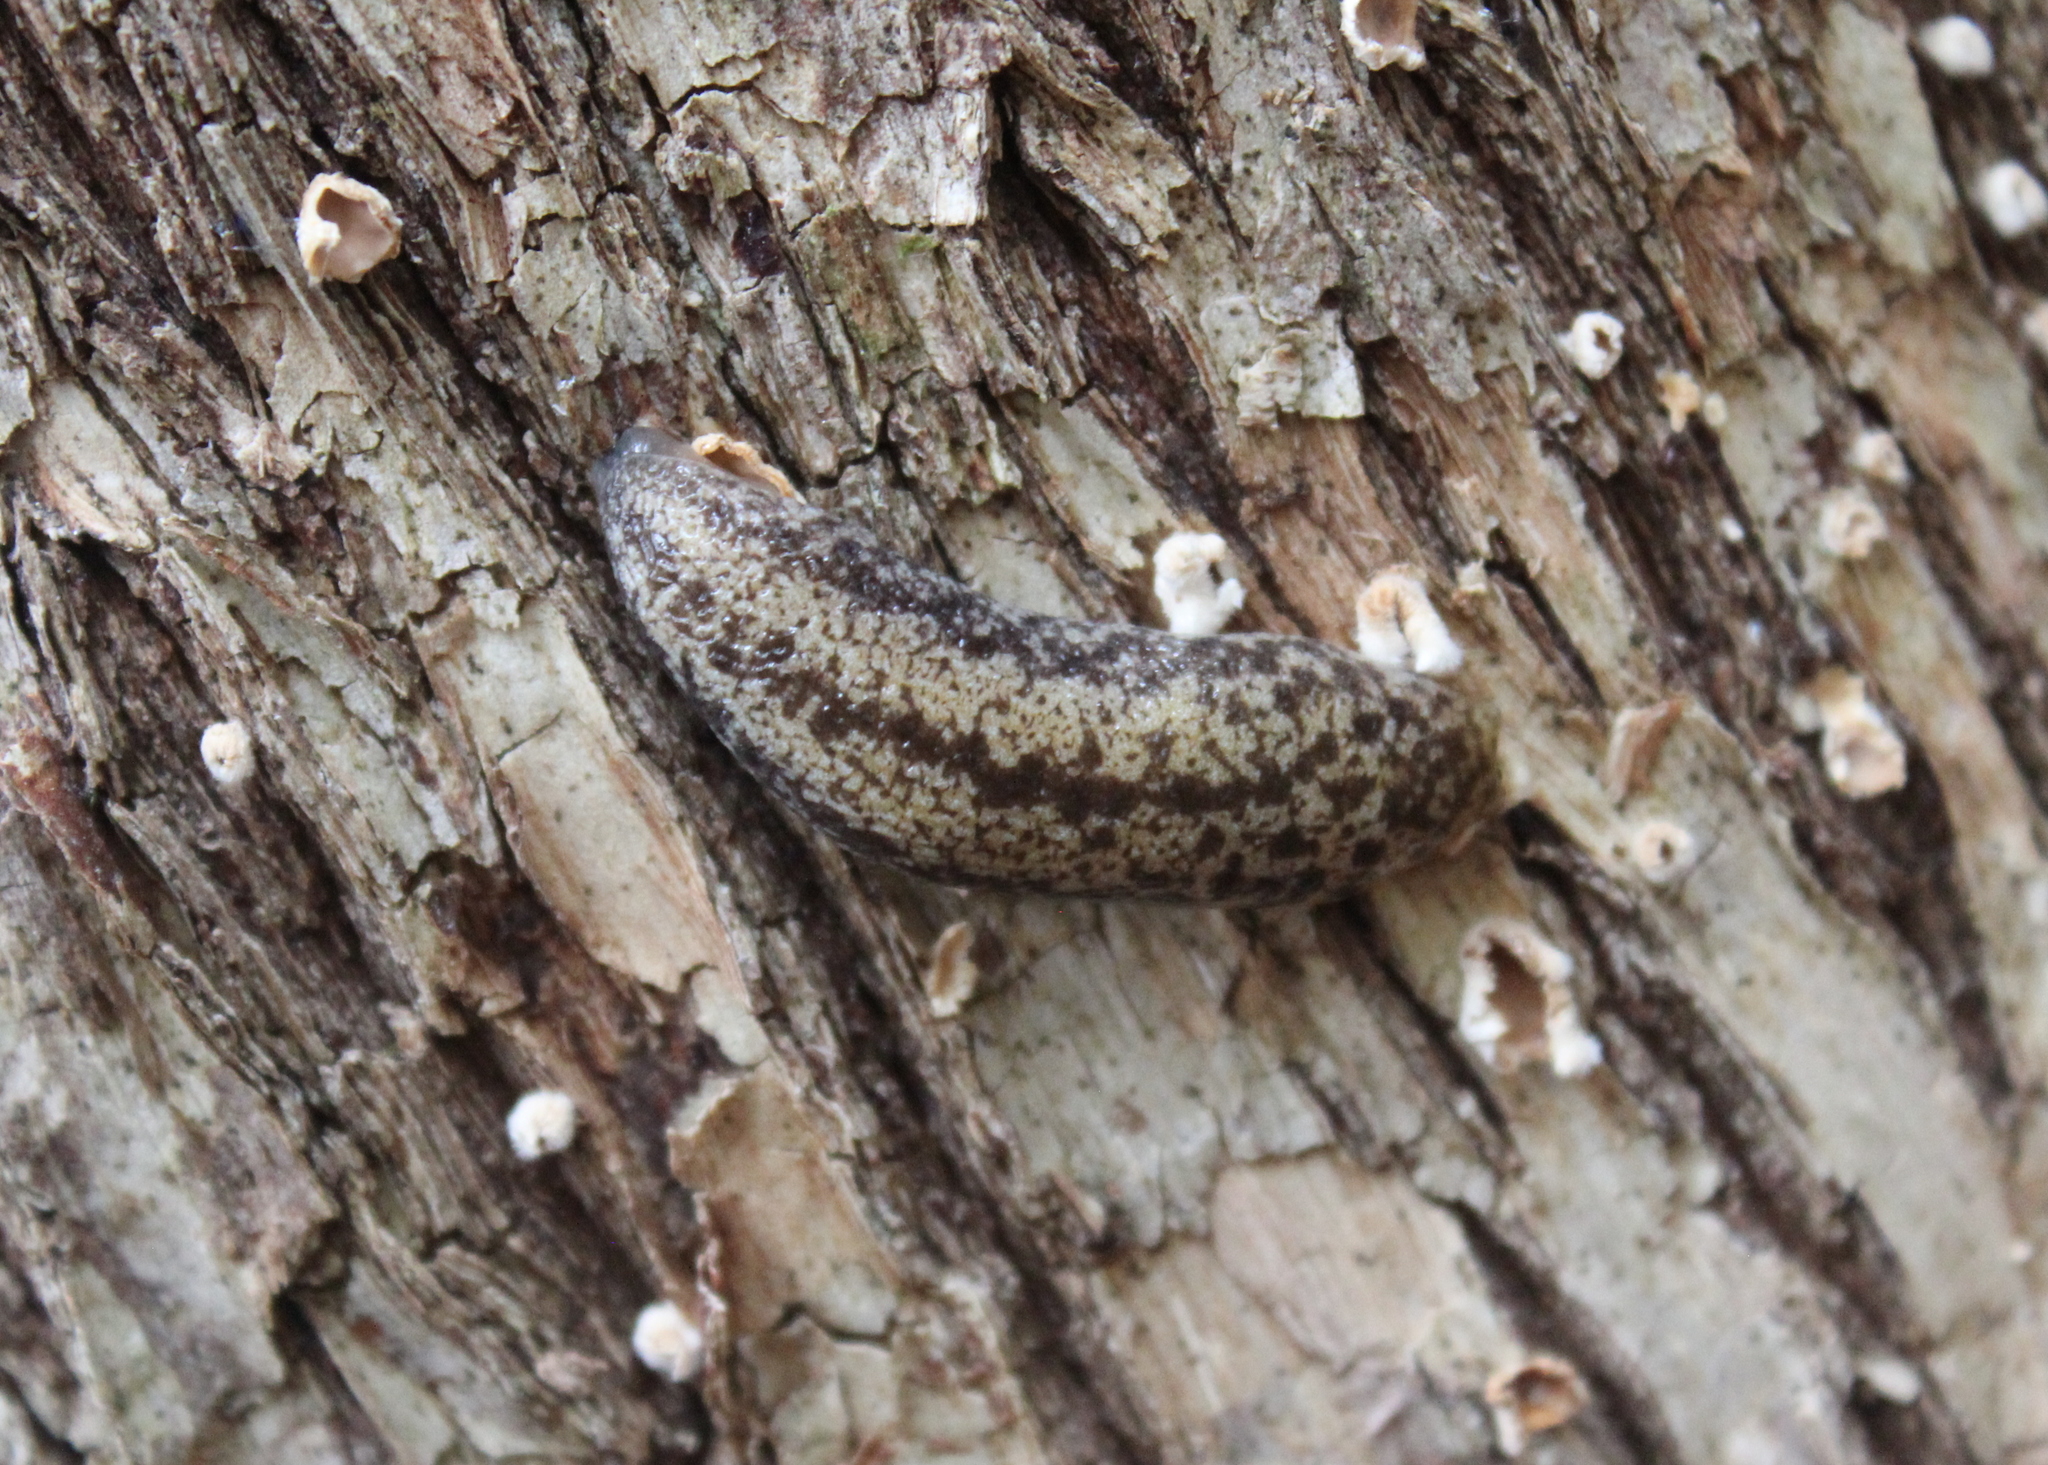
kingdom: Animalia
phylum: Mollusca
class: Gastropoda
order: Stylommatophora
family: Philomycidae
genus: Philomycus
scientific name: Philomycus flexuolaris
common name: Winding mantleslug
